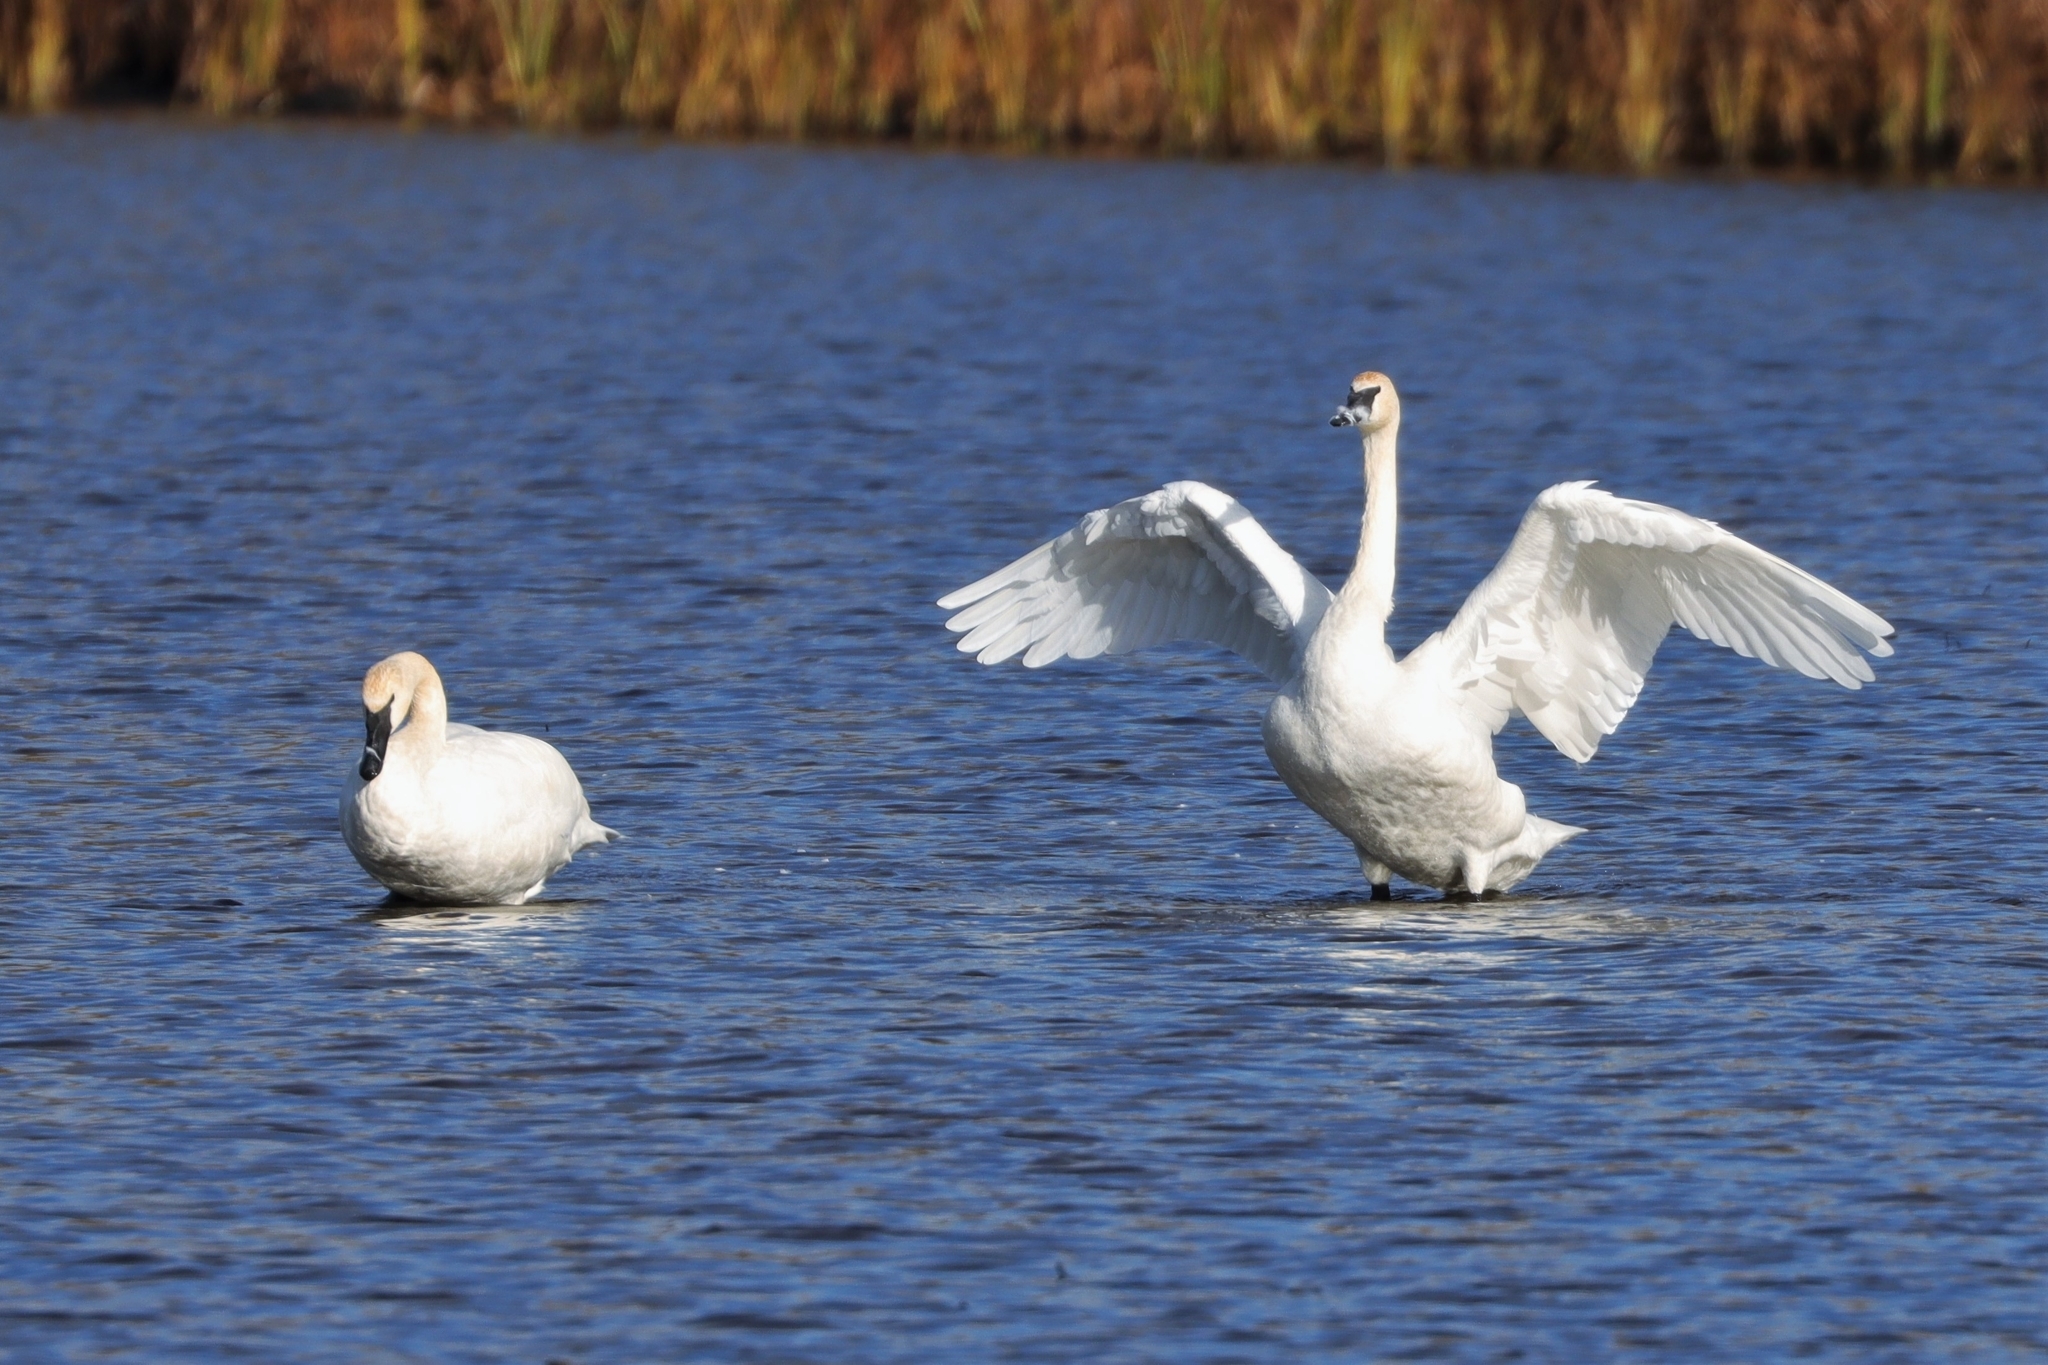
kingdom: Animalia
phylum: Chordata
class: Aves
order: Anseriformes
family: Anatidae
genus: Cygnus
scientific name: Cygnus buccinator
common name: Trumpeter swan
